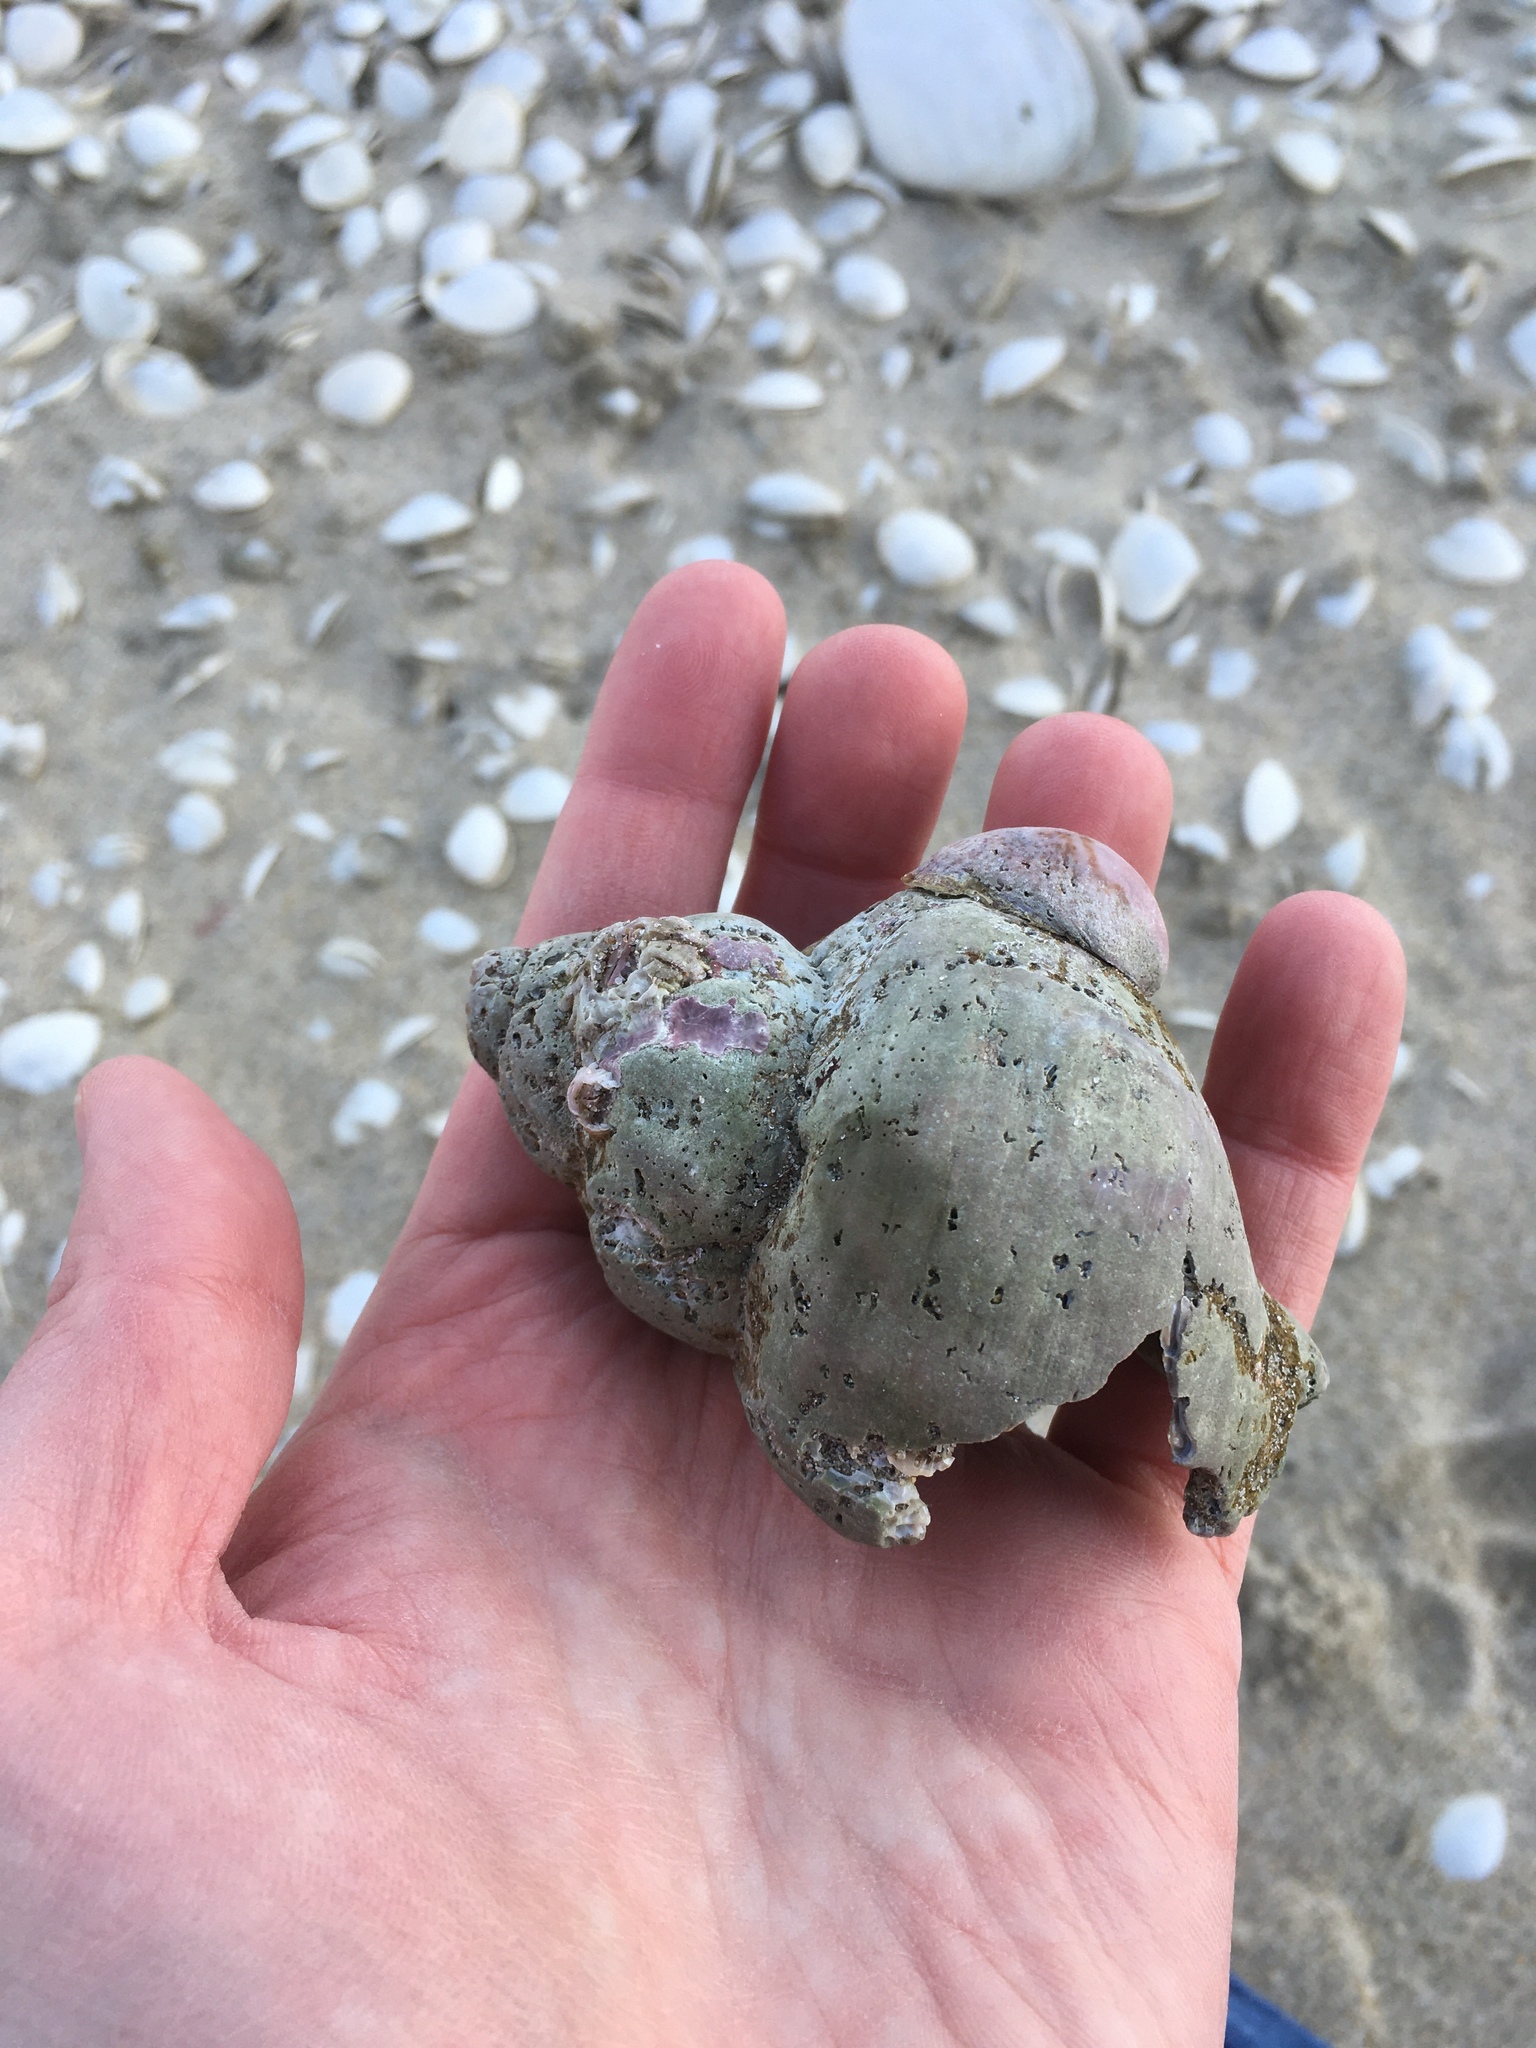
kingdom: Animalia
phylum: Mollusca
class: Gastropoda
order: Neogastropoda
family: Buccinidae
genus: Buccinum
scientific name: Buccinum undatum
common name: Common whelk
